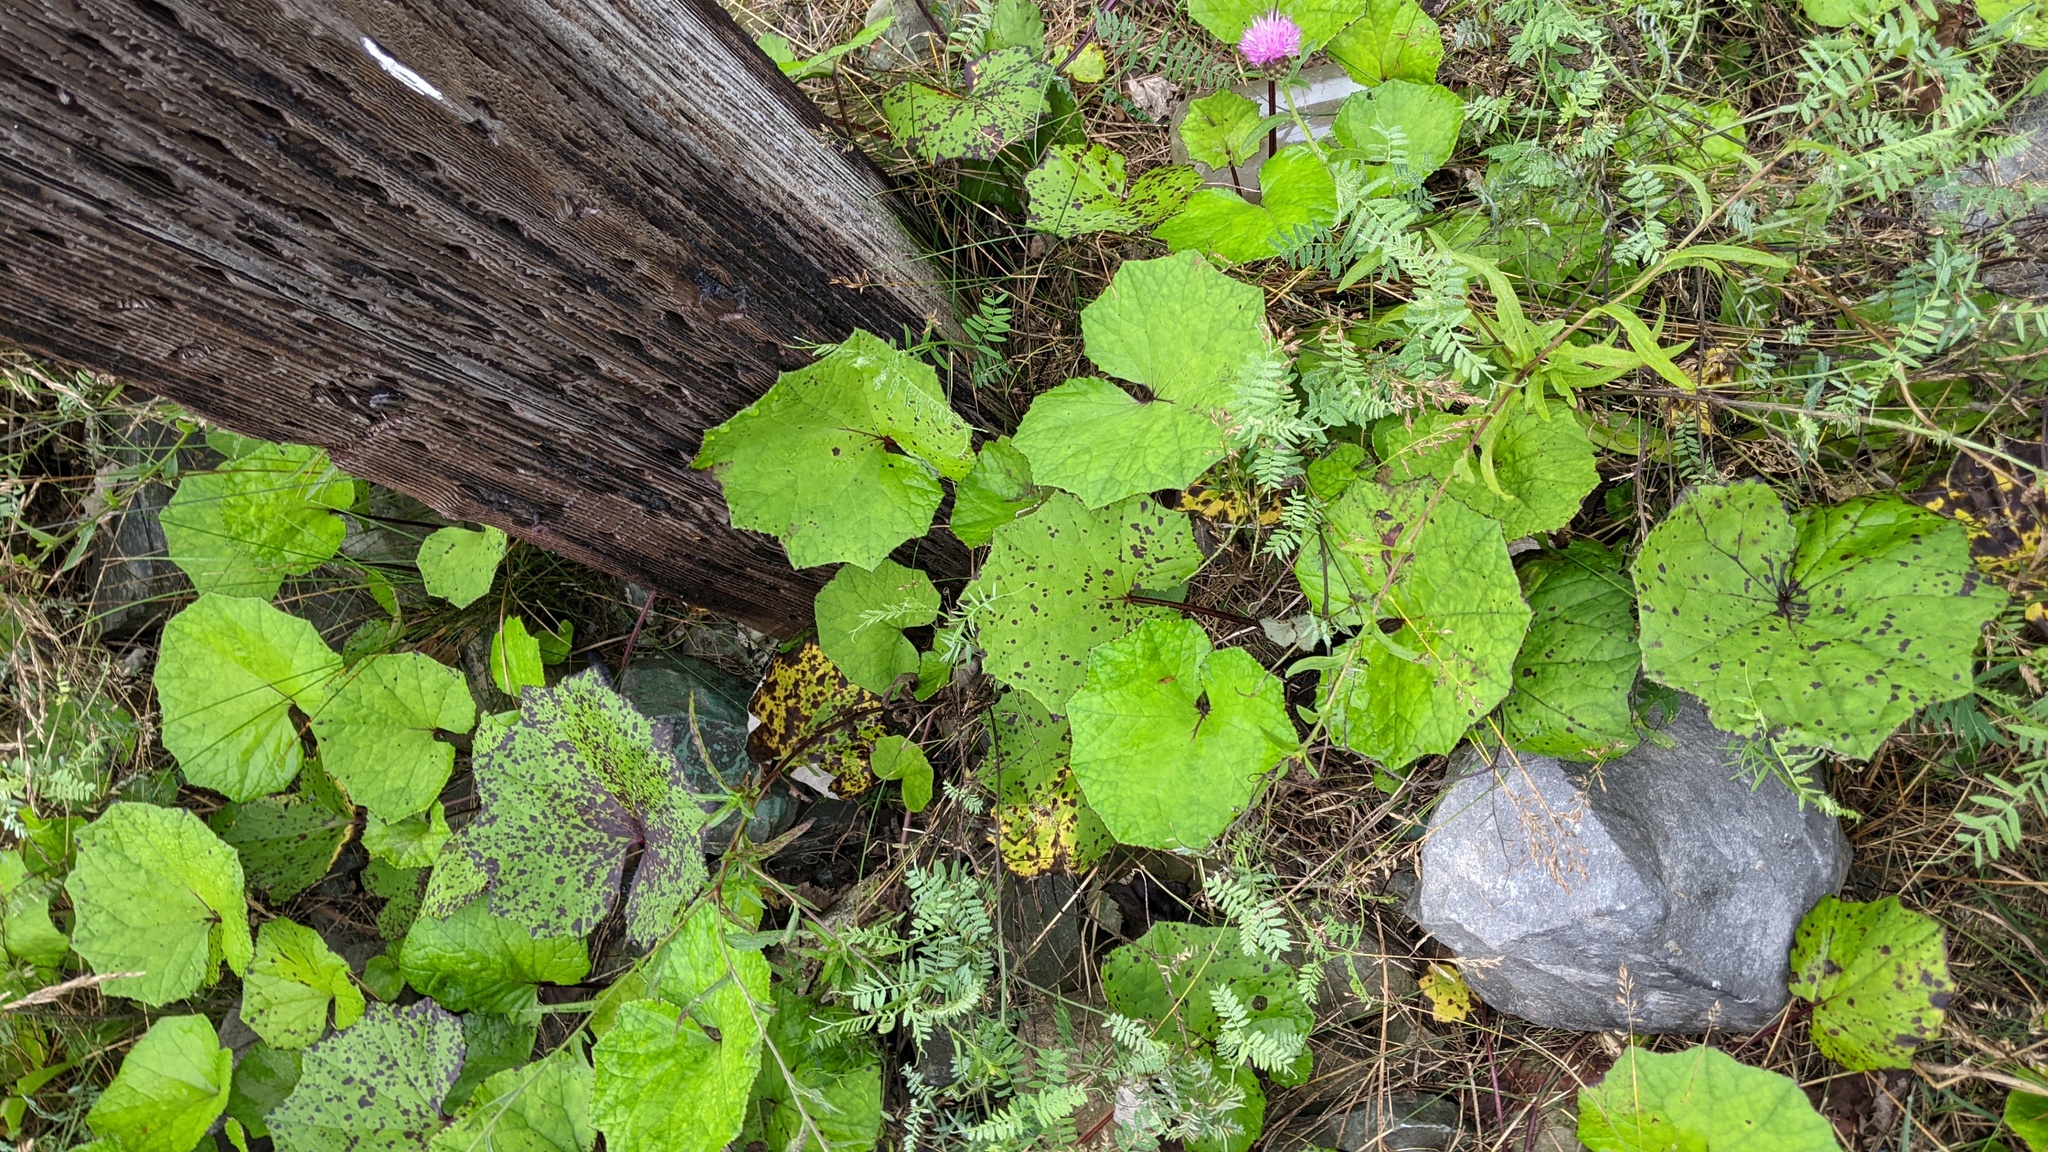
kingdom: Plantae
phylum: Tracheophyta
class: Magnoliopsida
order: Asterales
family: Asteraceae
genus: Tussilago
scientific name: Tussilago farfara
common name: Coltsfoot
